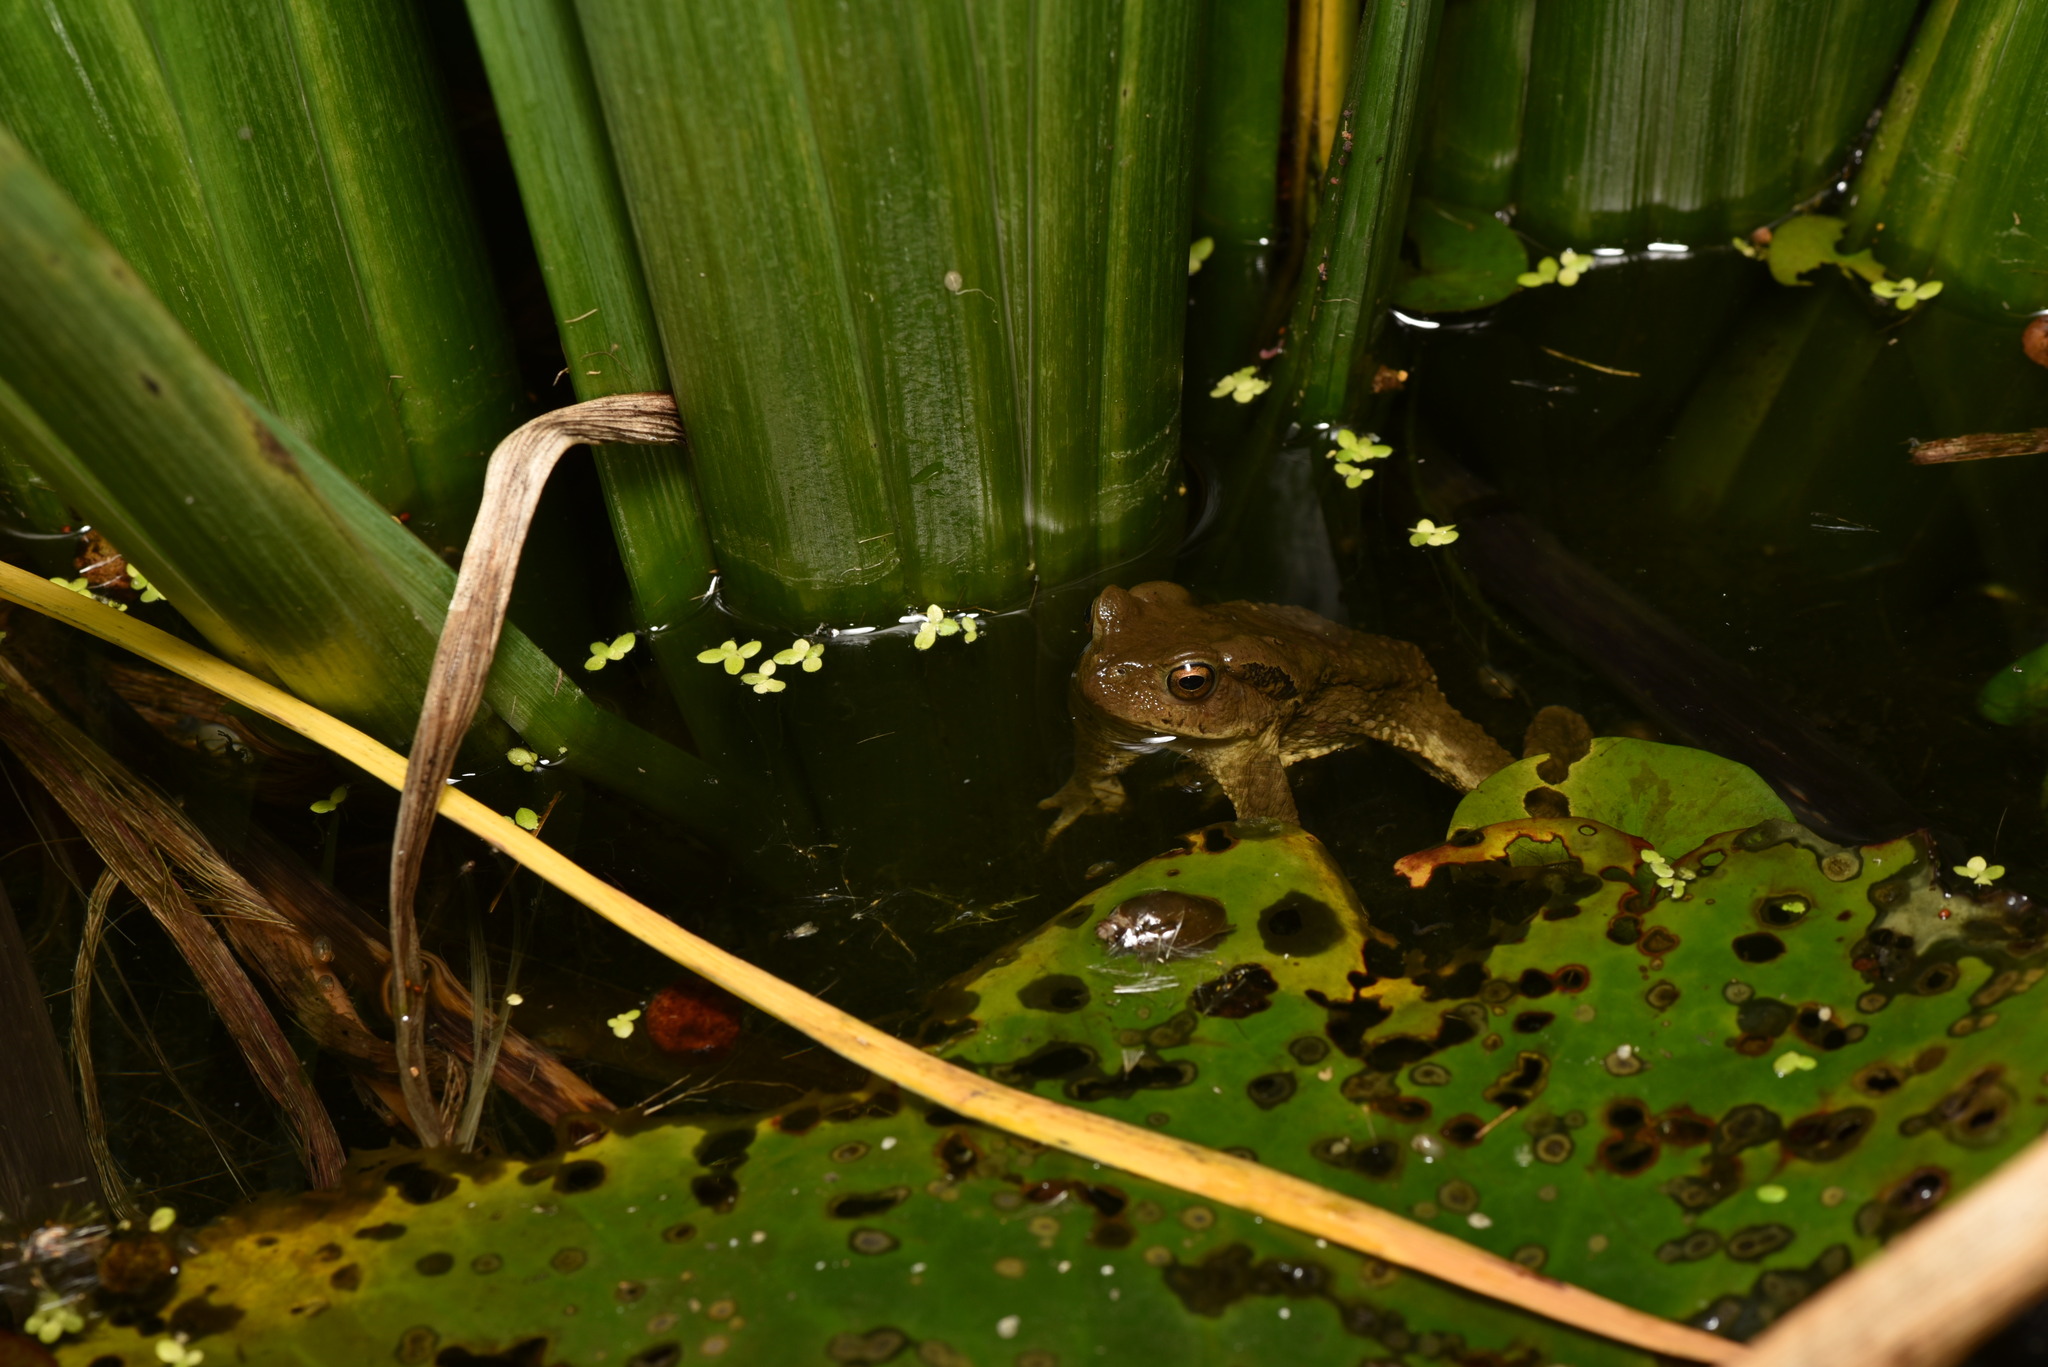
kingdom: Animalia
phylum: Chordata
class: Amphibia
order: Anura
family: Bufonidae
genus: Bufo
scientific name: Bufo bankorensis
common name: Bankor toad
